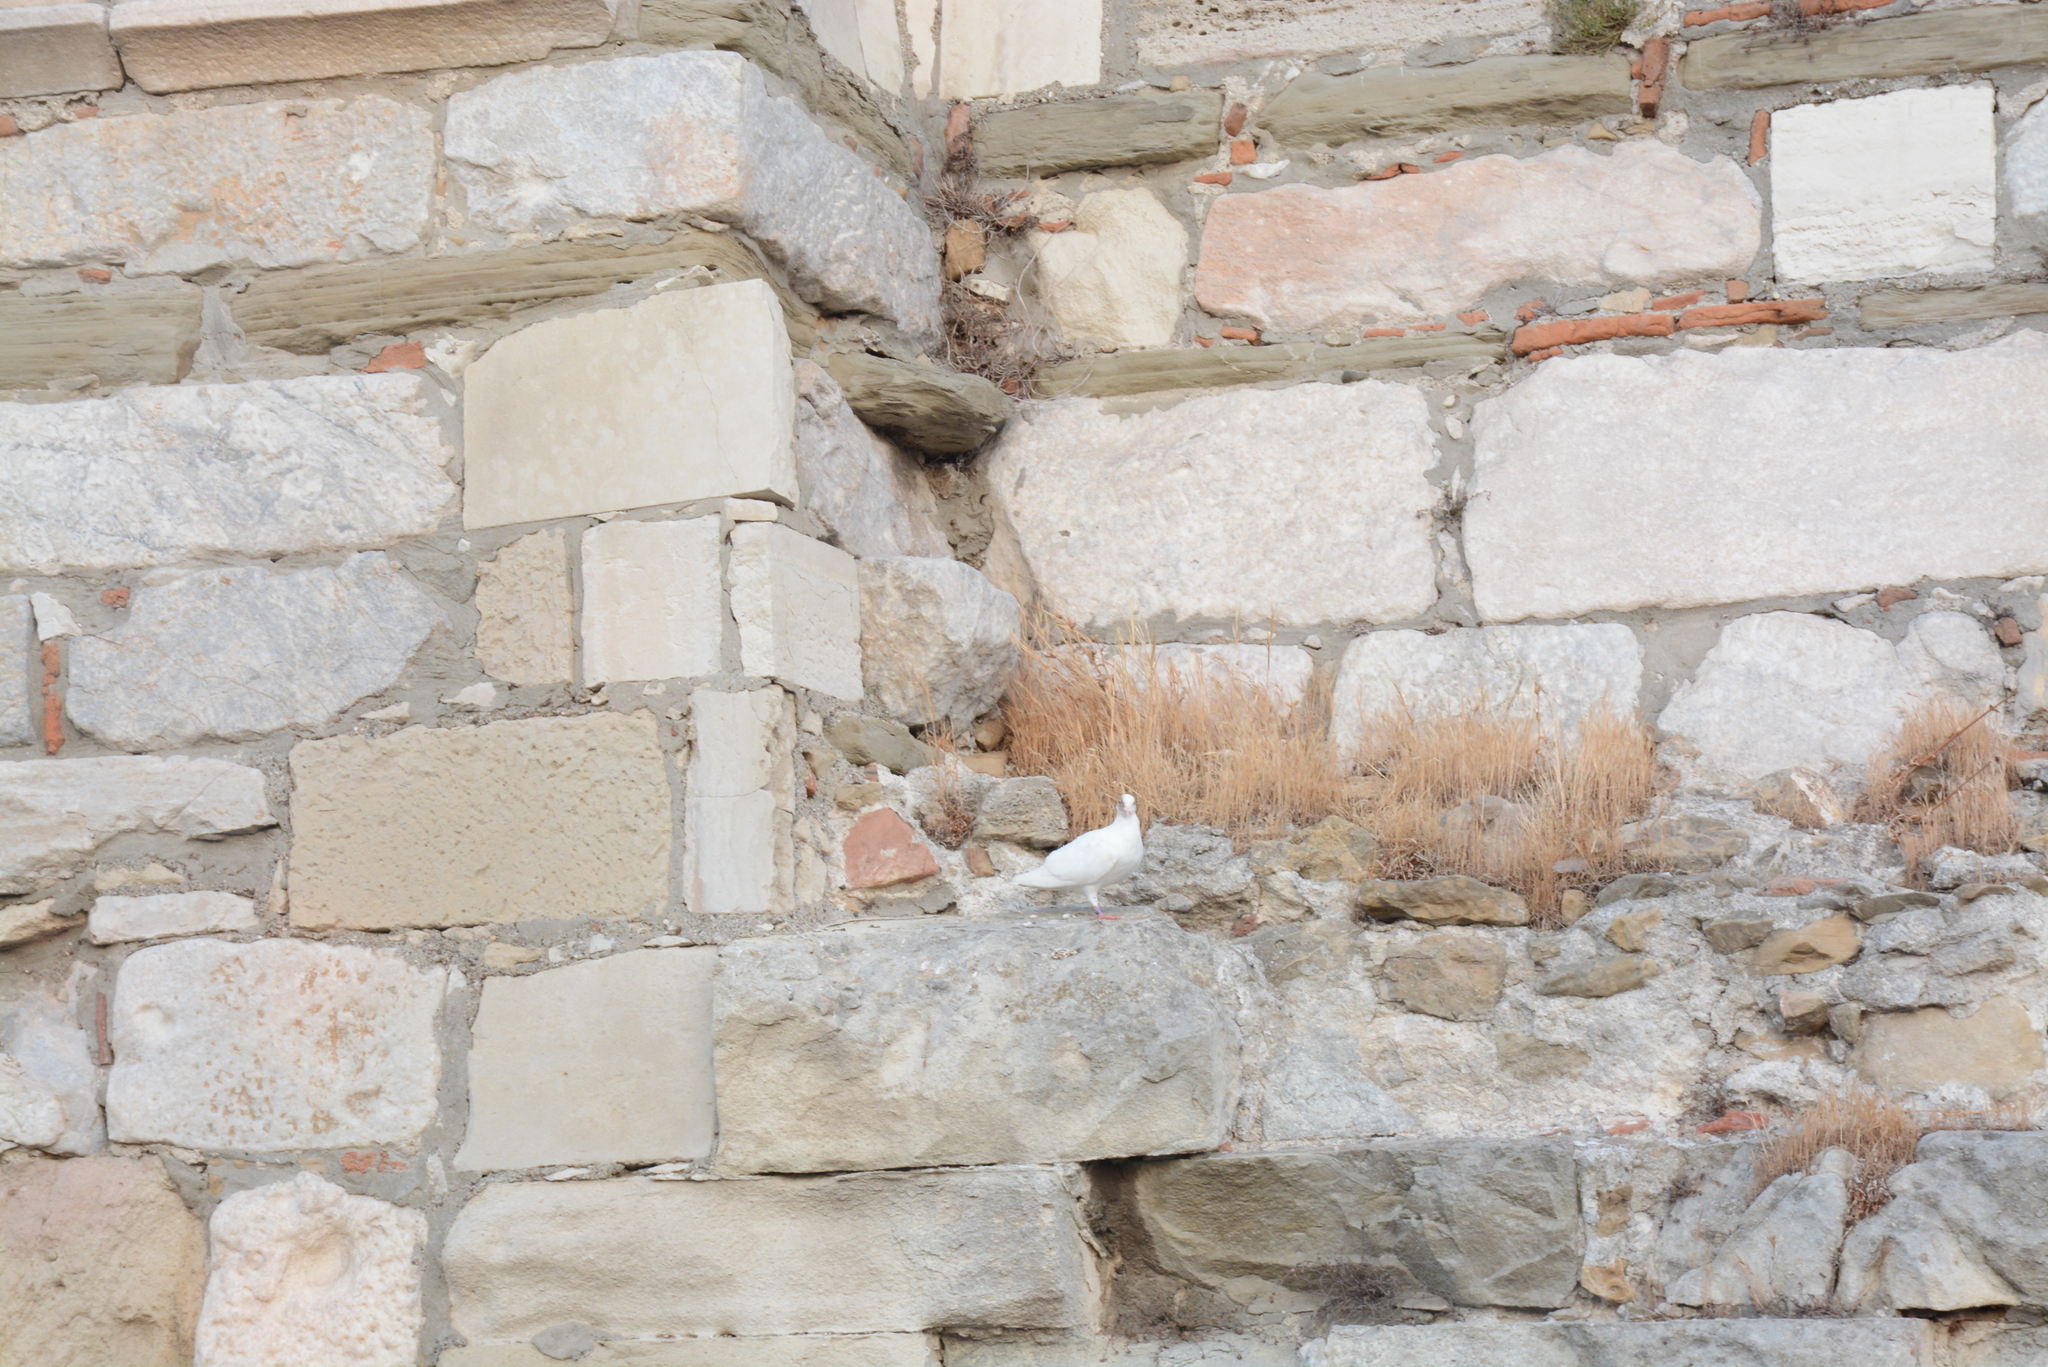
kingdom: Animalia
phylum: Chordata
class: Aves
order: Columbiformes
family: Columbidae
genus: Columba
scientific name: Columba livia
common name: Rock pigeon
